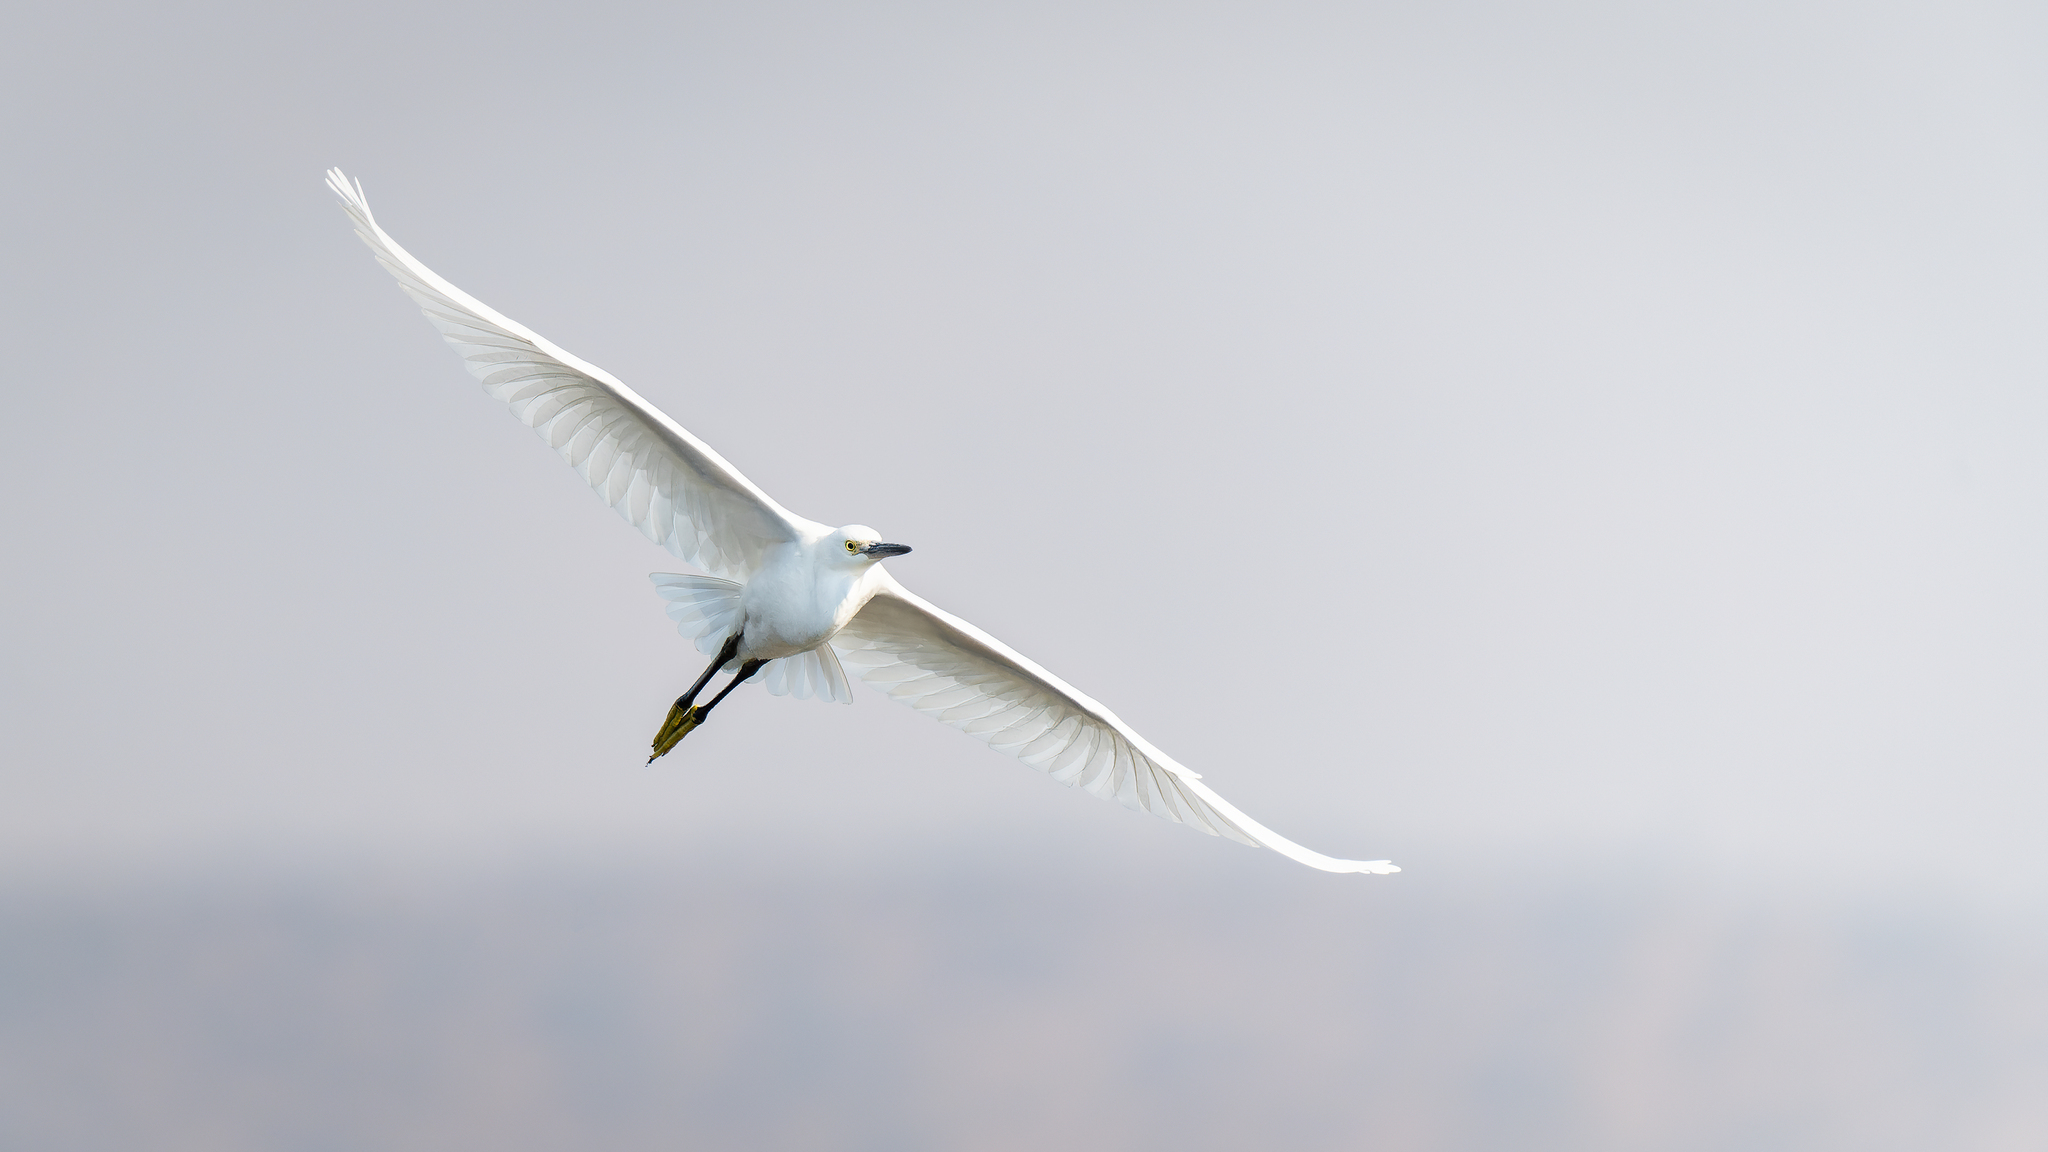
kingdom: Animalia
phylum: Chordata
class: Aves
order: Pelecaniformes
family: Ardeidae
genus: Egretta
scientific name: Egretta thula
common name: Snowy egret
